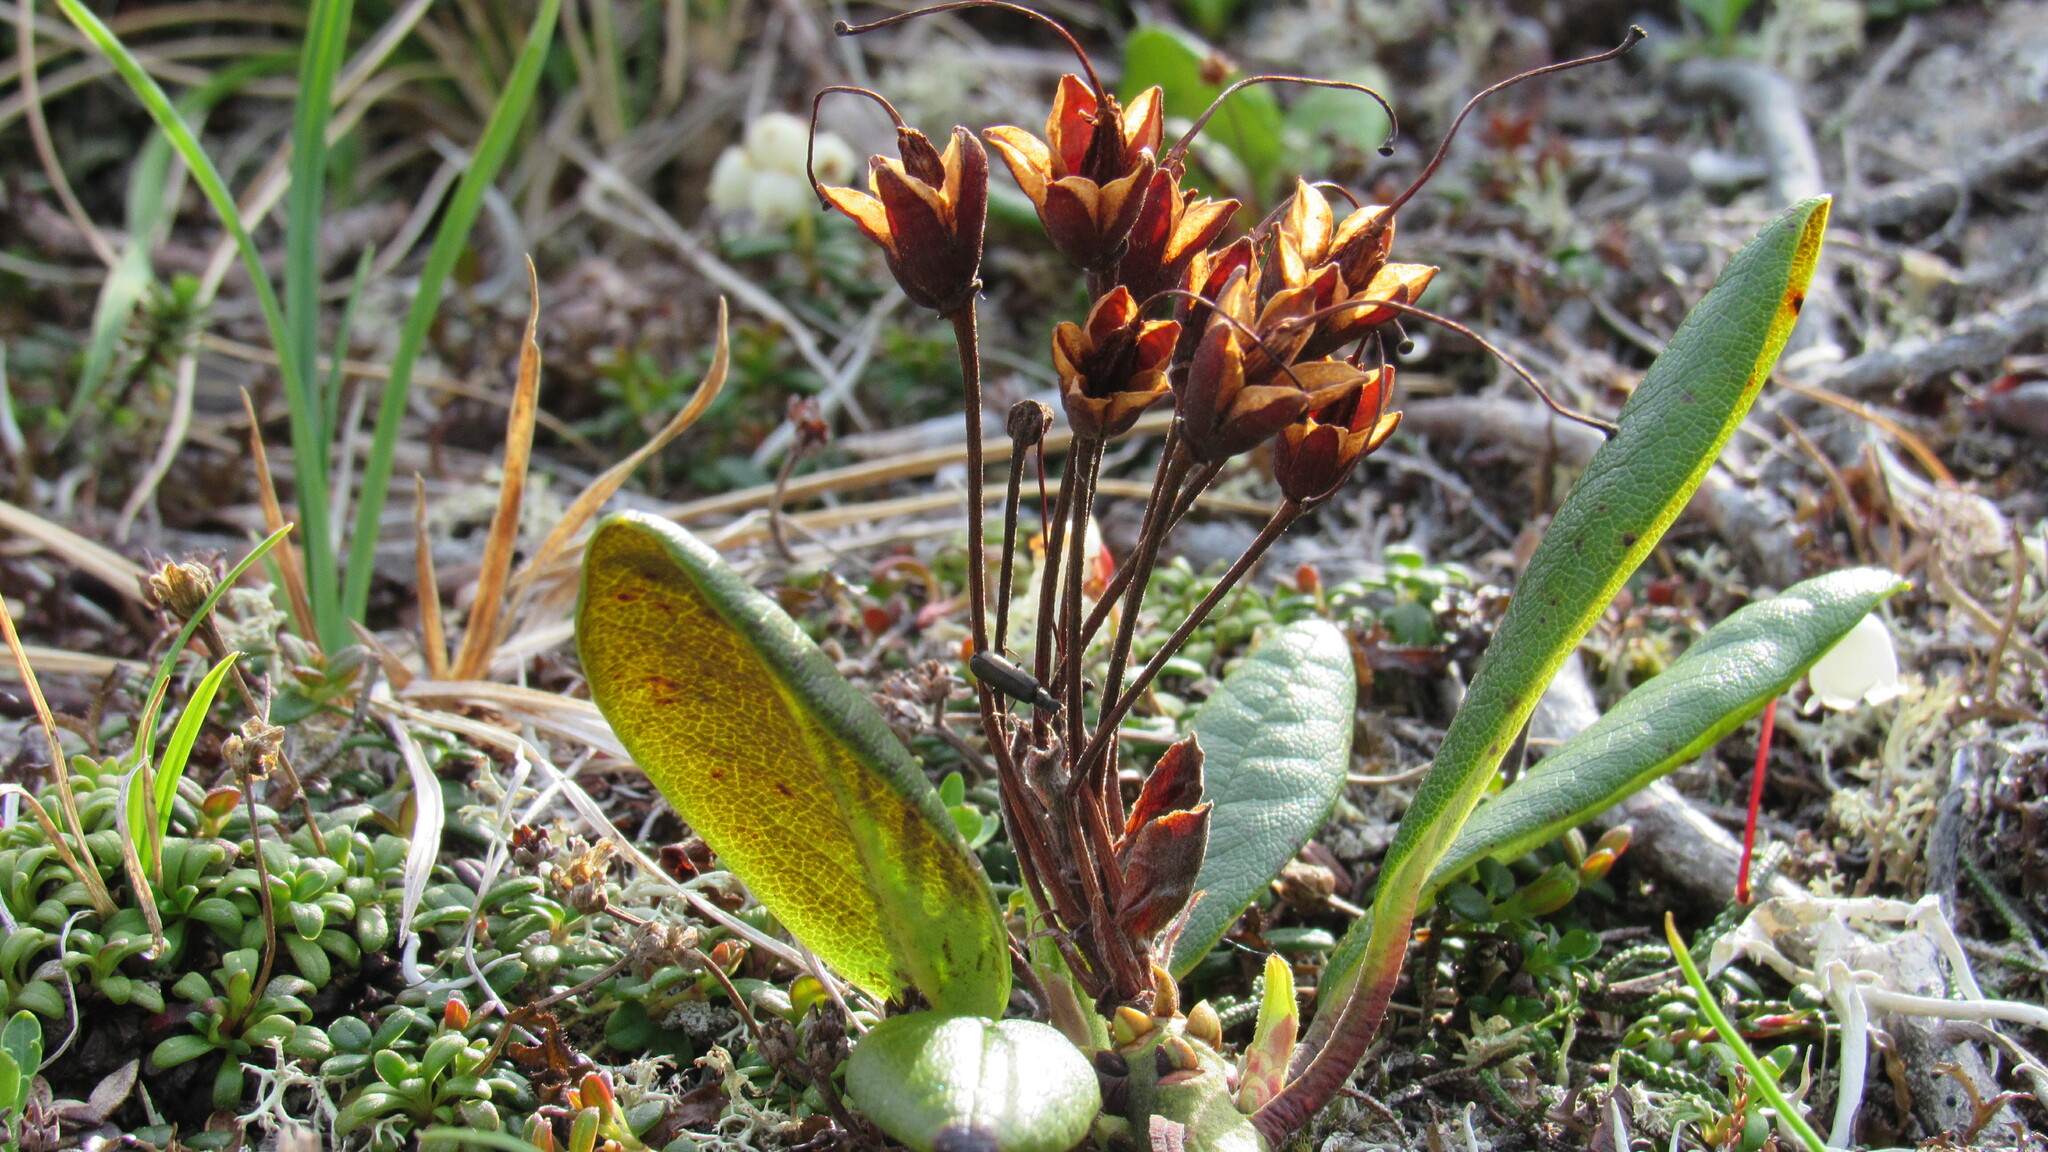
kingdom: Plantae
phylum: Tracheophyta
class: Magnoliopsida
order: Ericales
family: Ericaceae
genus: Rhododendron
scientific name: Rhododendron aureum
